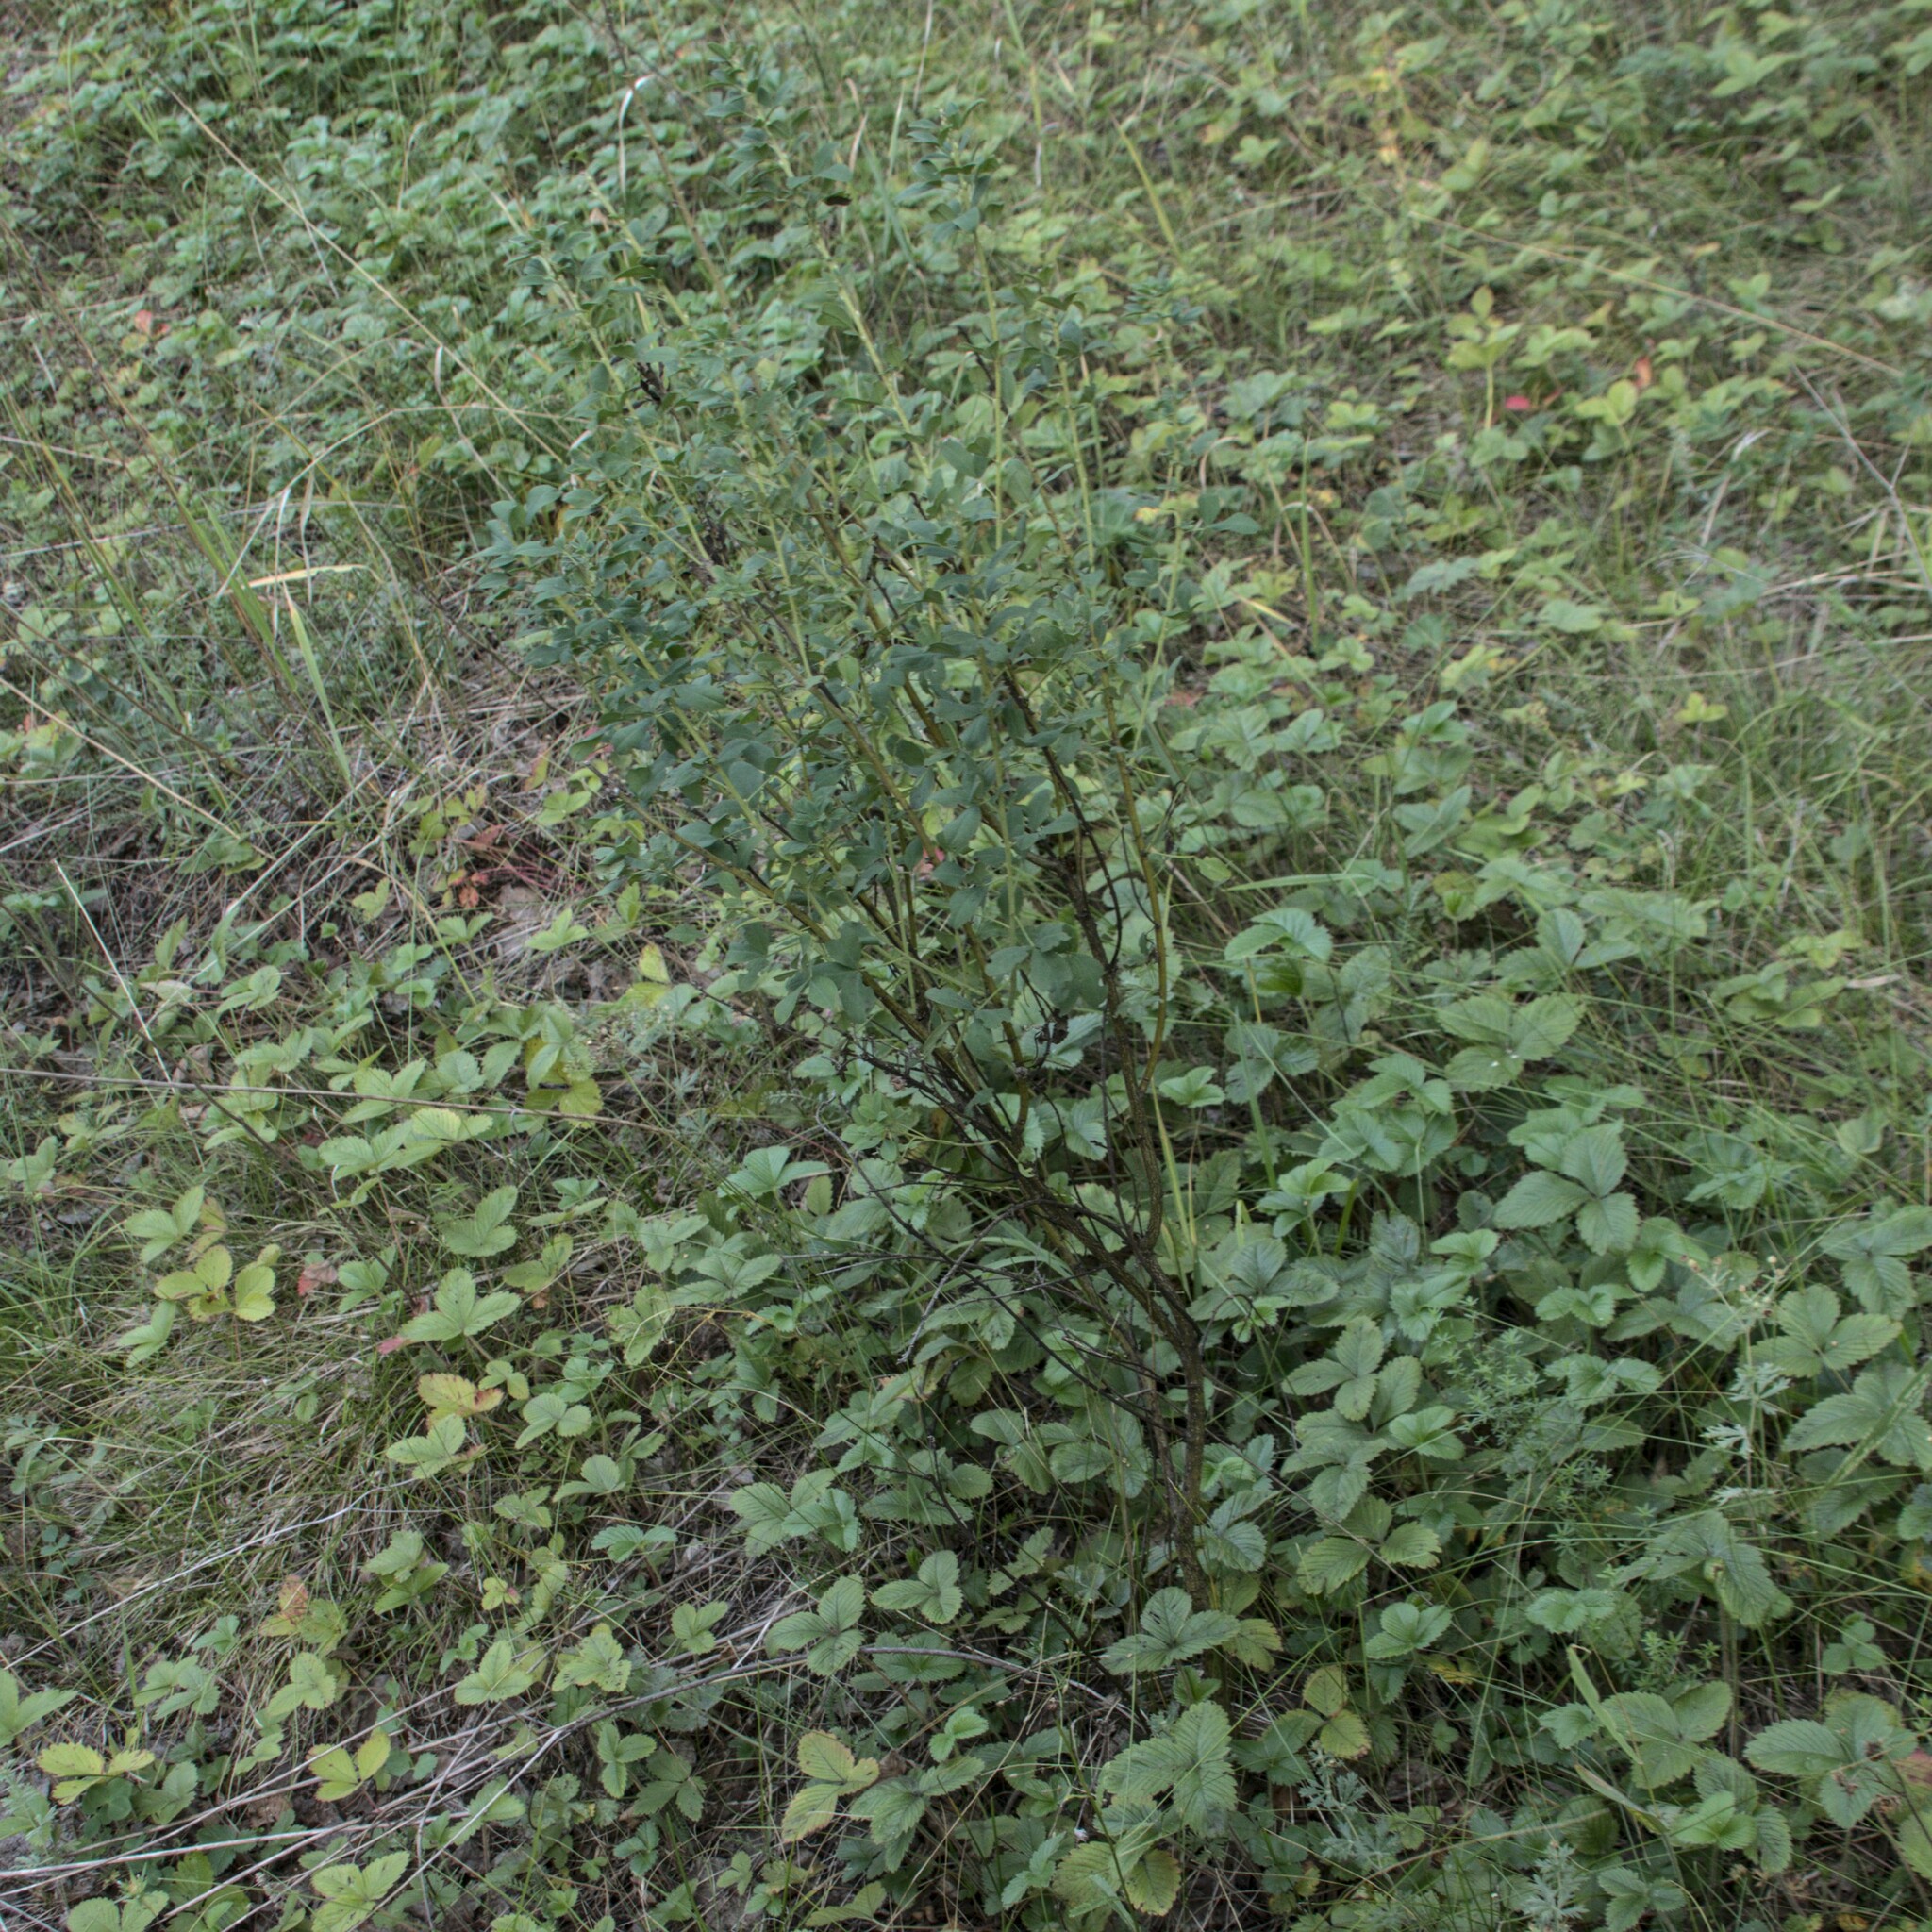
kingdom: Plantae
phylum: Tracheophyta
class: Magnoliopsida
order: Fabales
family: Fabaceae
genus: Chamaecytisus
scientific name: Chamaecytisus ruthenicus
